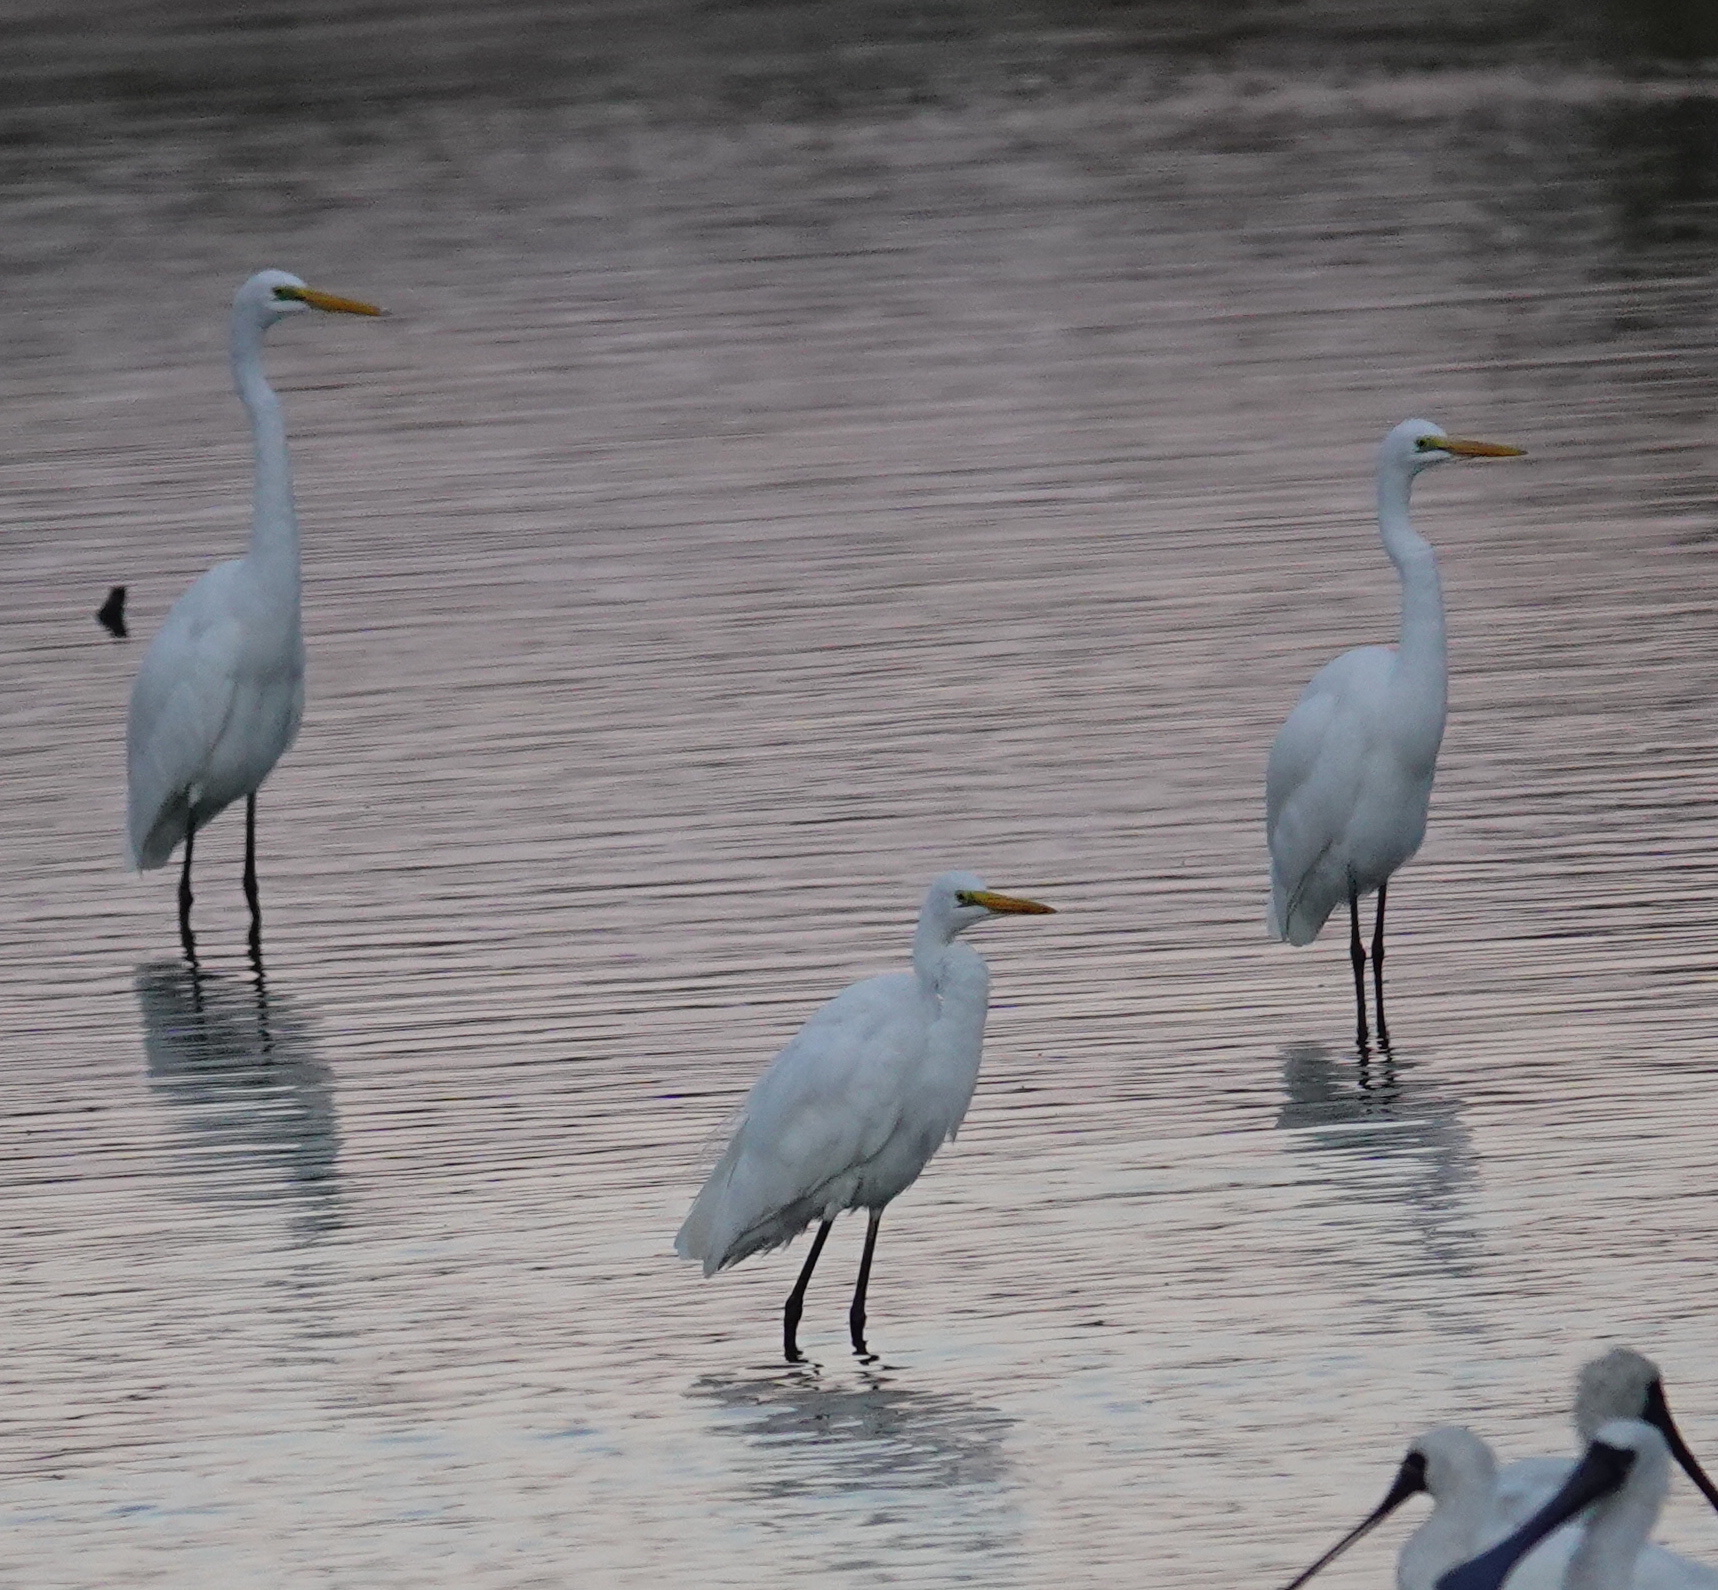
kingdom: Animalia
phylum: Chordata
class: Aves
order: Pelecaniformes
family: Ardeidae
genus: Ardea
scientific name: Ardea alba
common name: Great egret
